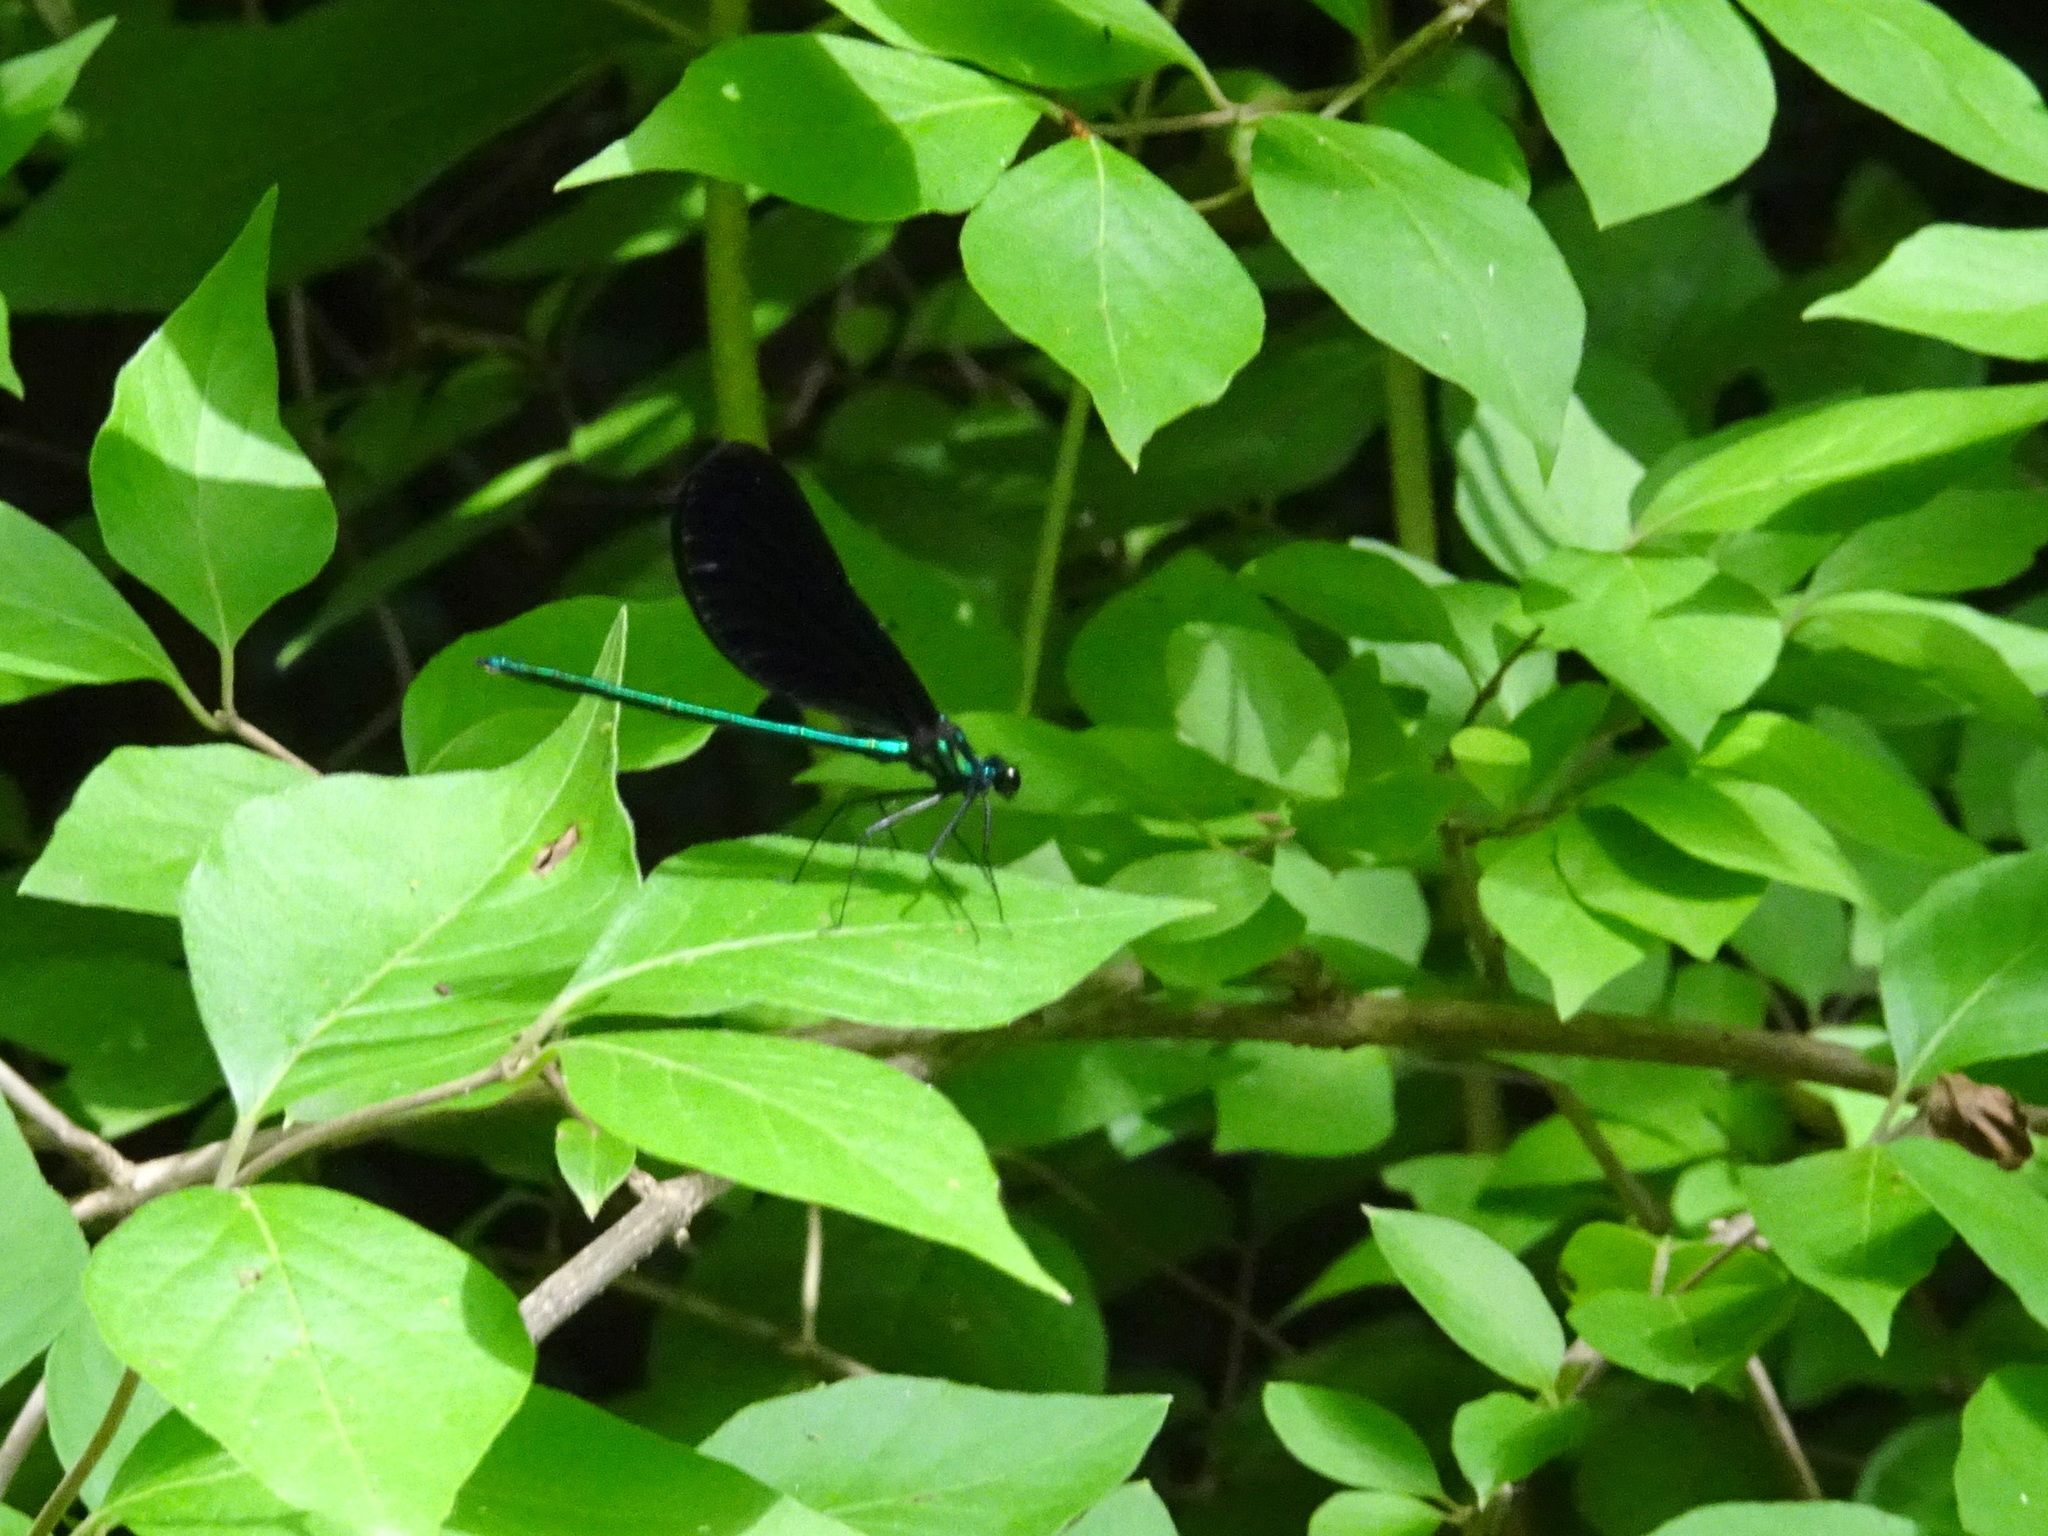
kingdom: Animalia
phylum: Arthropoda
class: Insecta
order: Odonata
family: Calopterygidae
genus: Calopteryx
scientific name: Calopteryx maculata
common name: Ebony jewelwing
